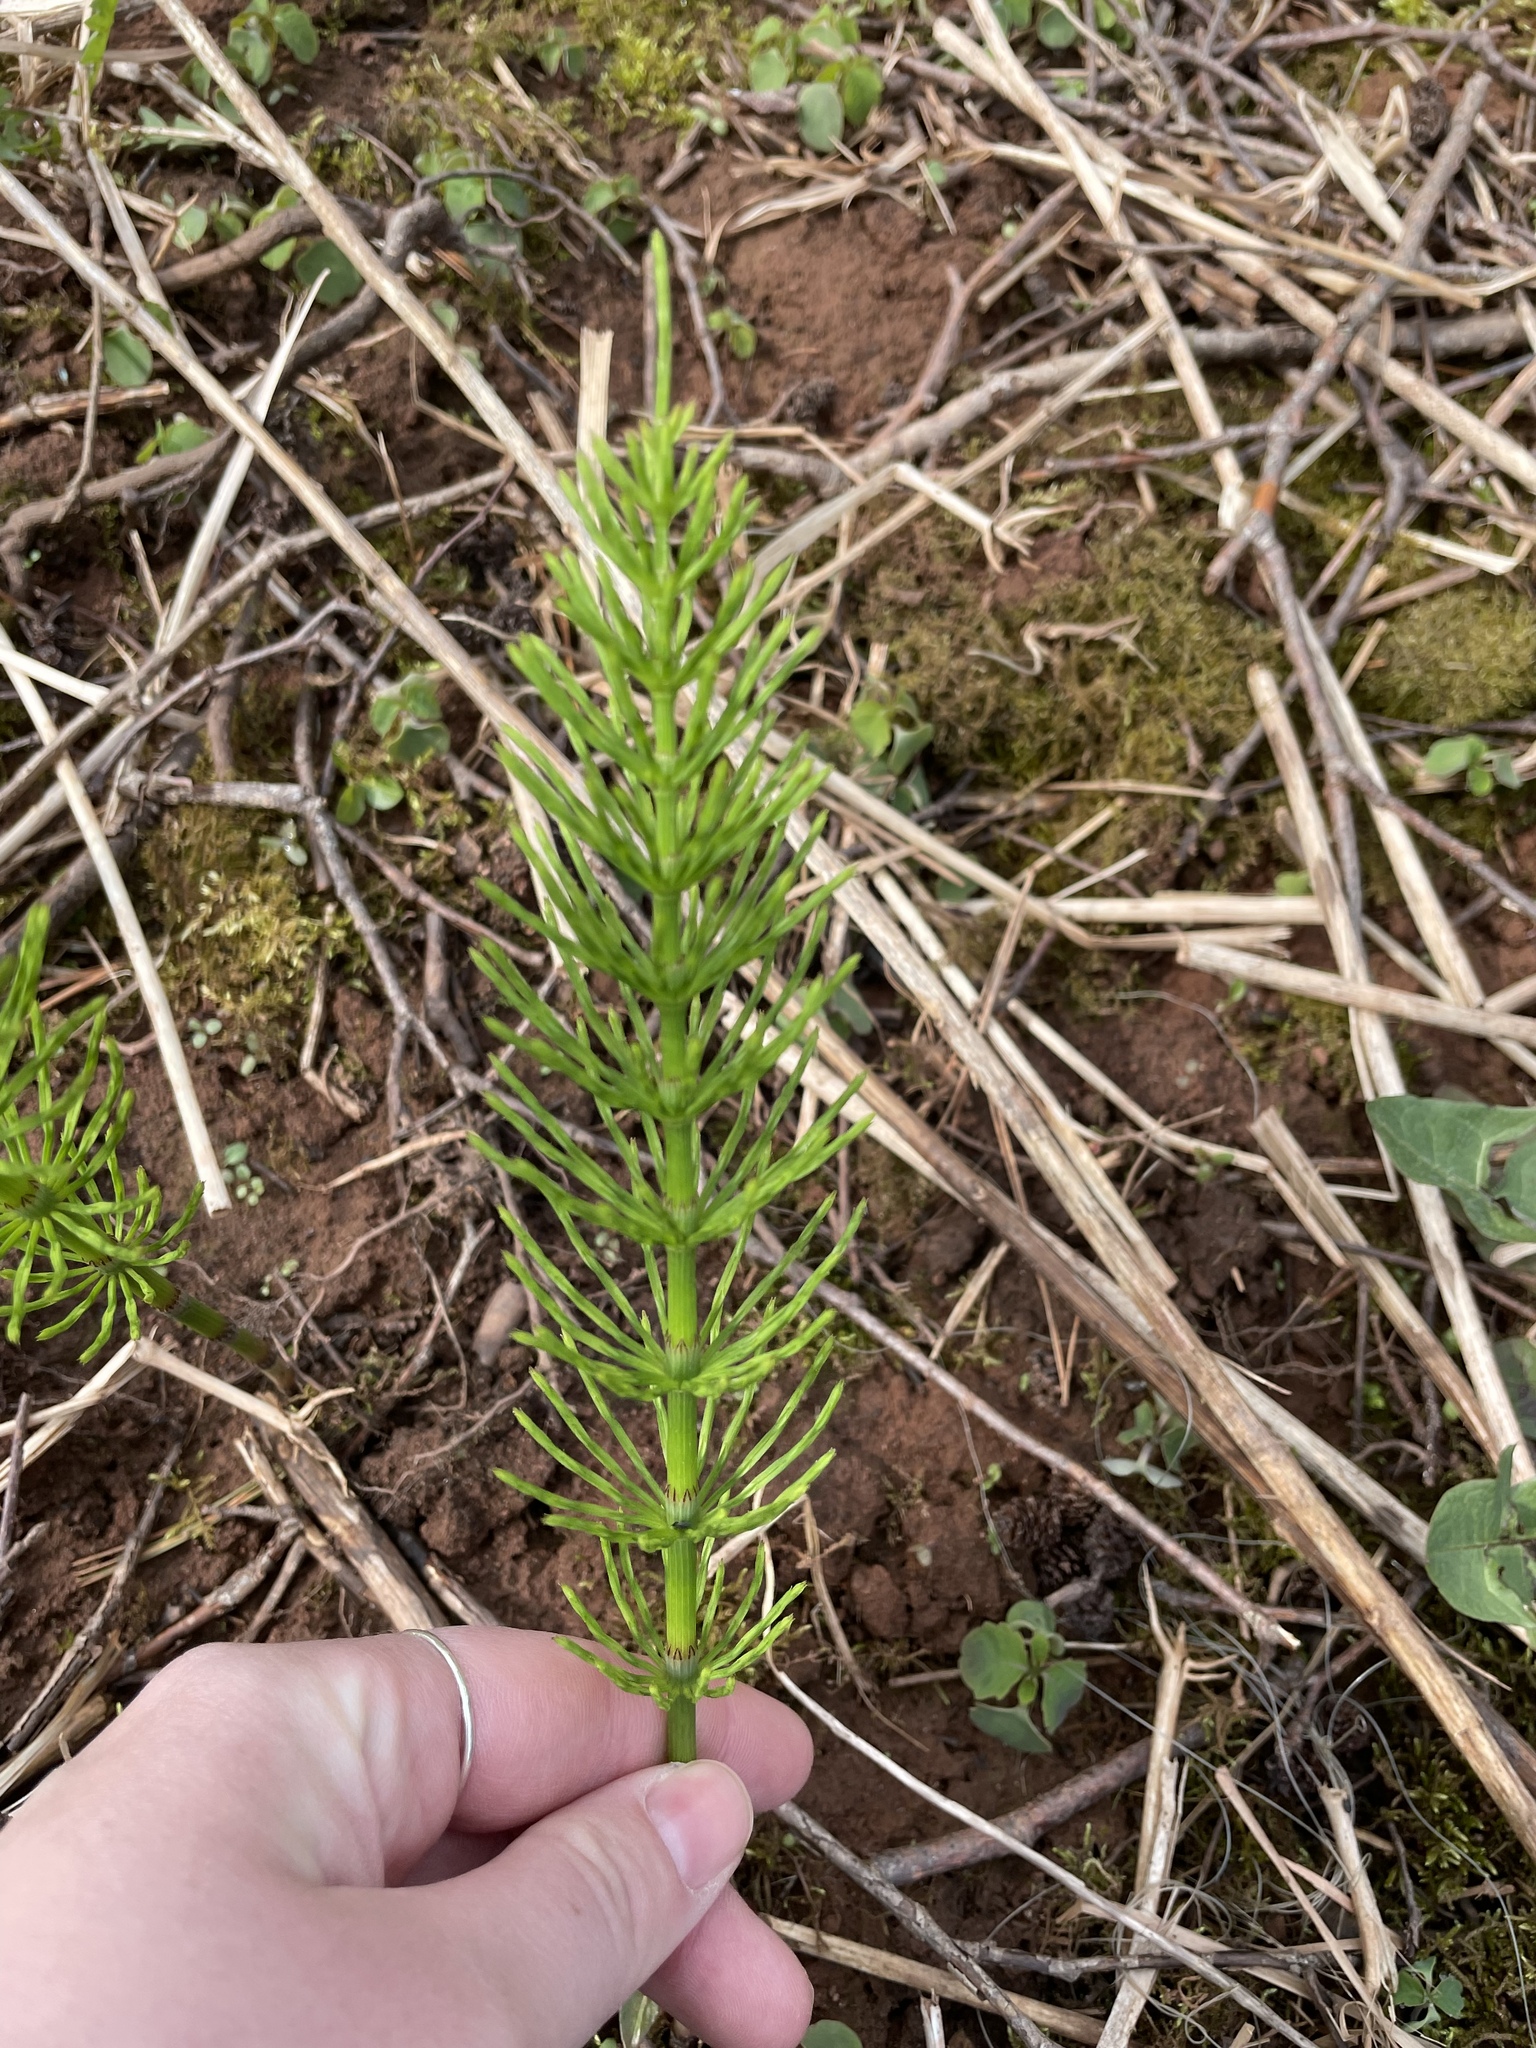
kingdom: Plantae
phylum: Tracheophyta
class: Polypodiopsida
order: Equisetales
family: Equisetaceae
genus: Equisetum
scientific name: Equisetum arvense
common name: Field horsetail
